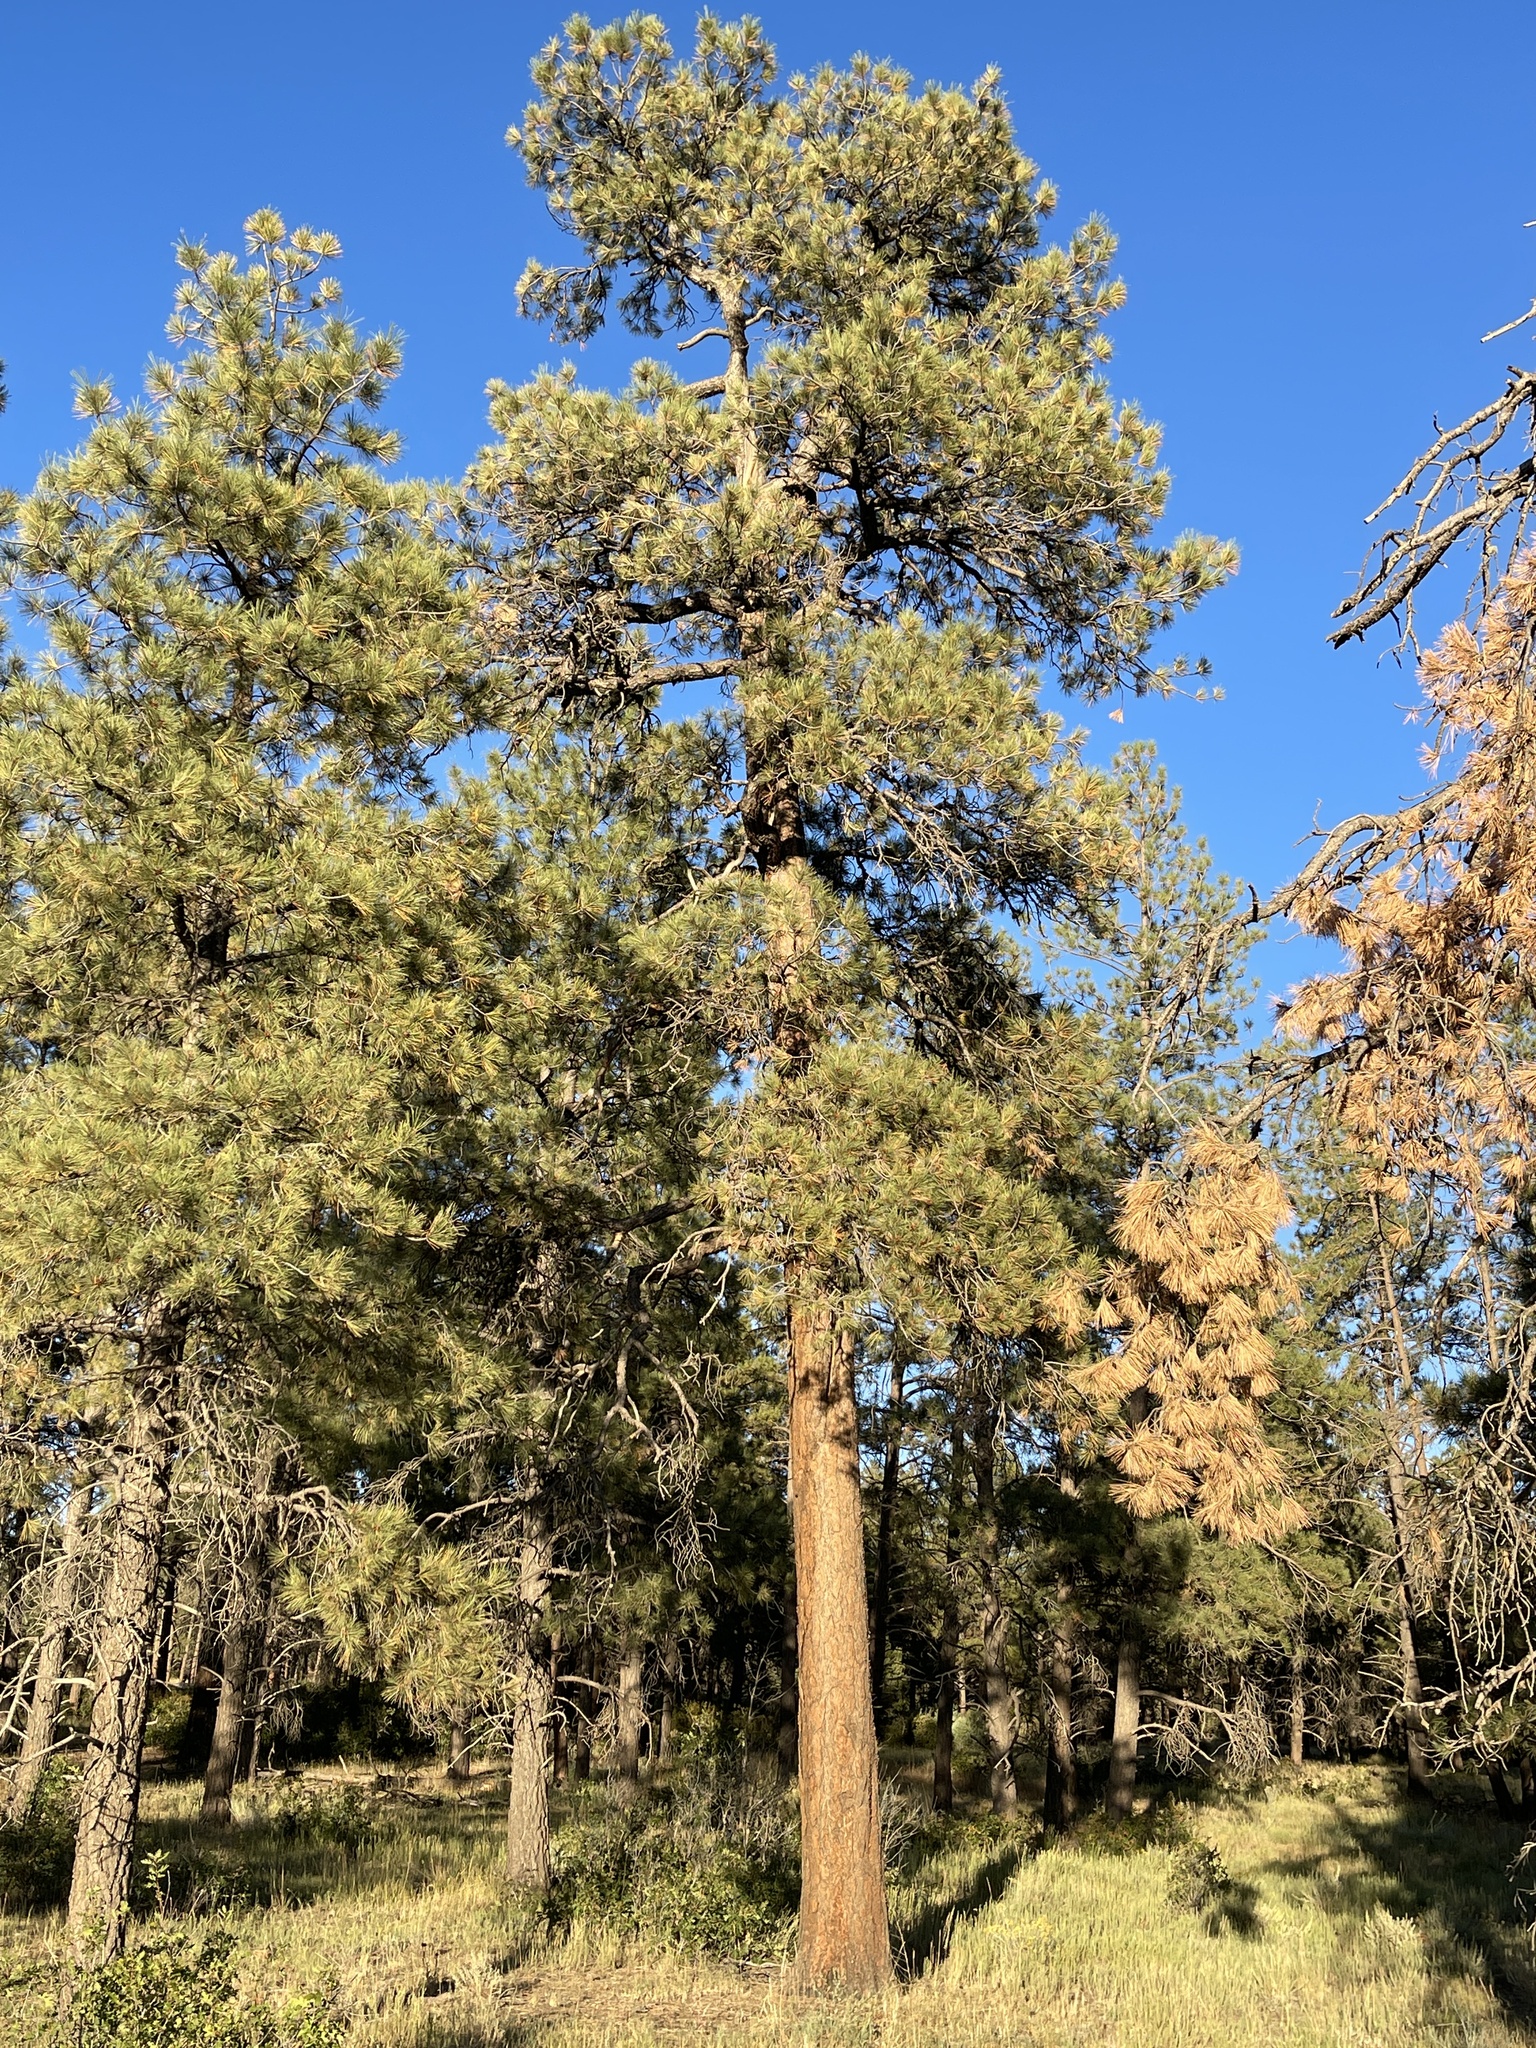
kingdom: Plantae
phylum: Tracheophyta
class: Pinopsida
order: Pinales
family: Pinaceae
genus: Pinus
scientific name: Pinus ponderosa
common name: Western yellow-pine
